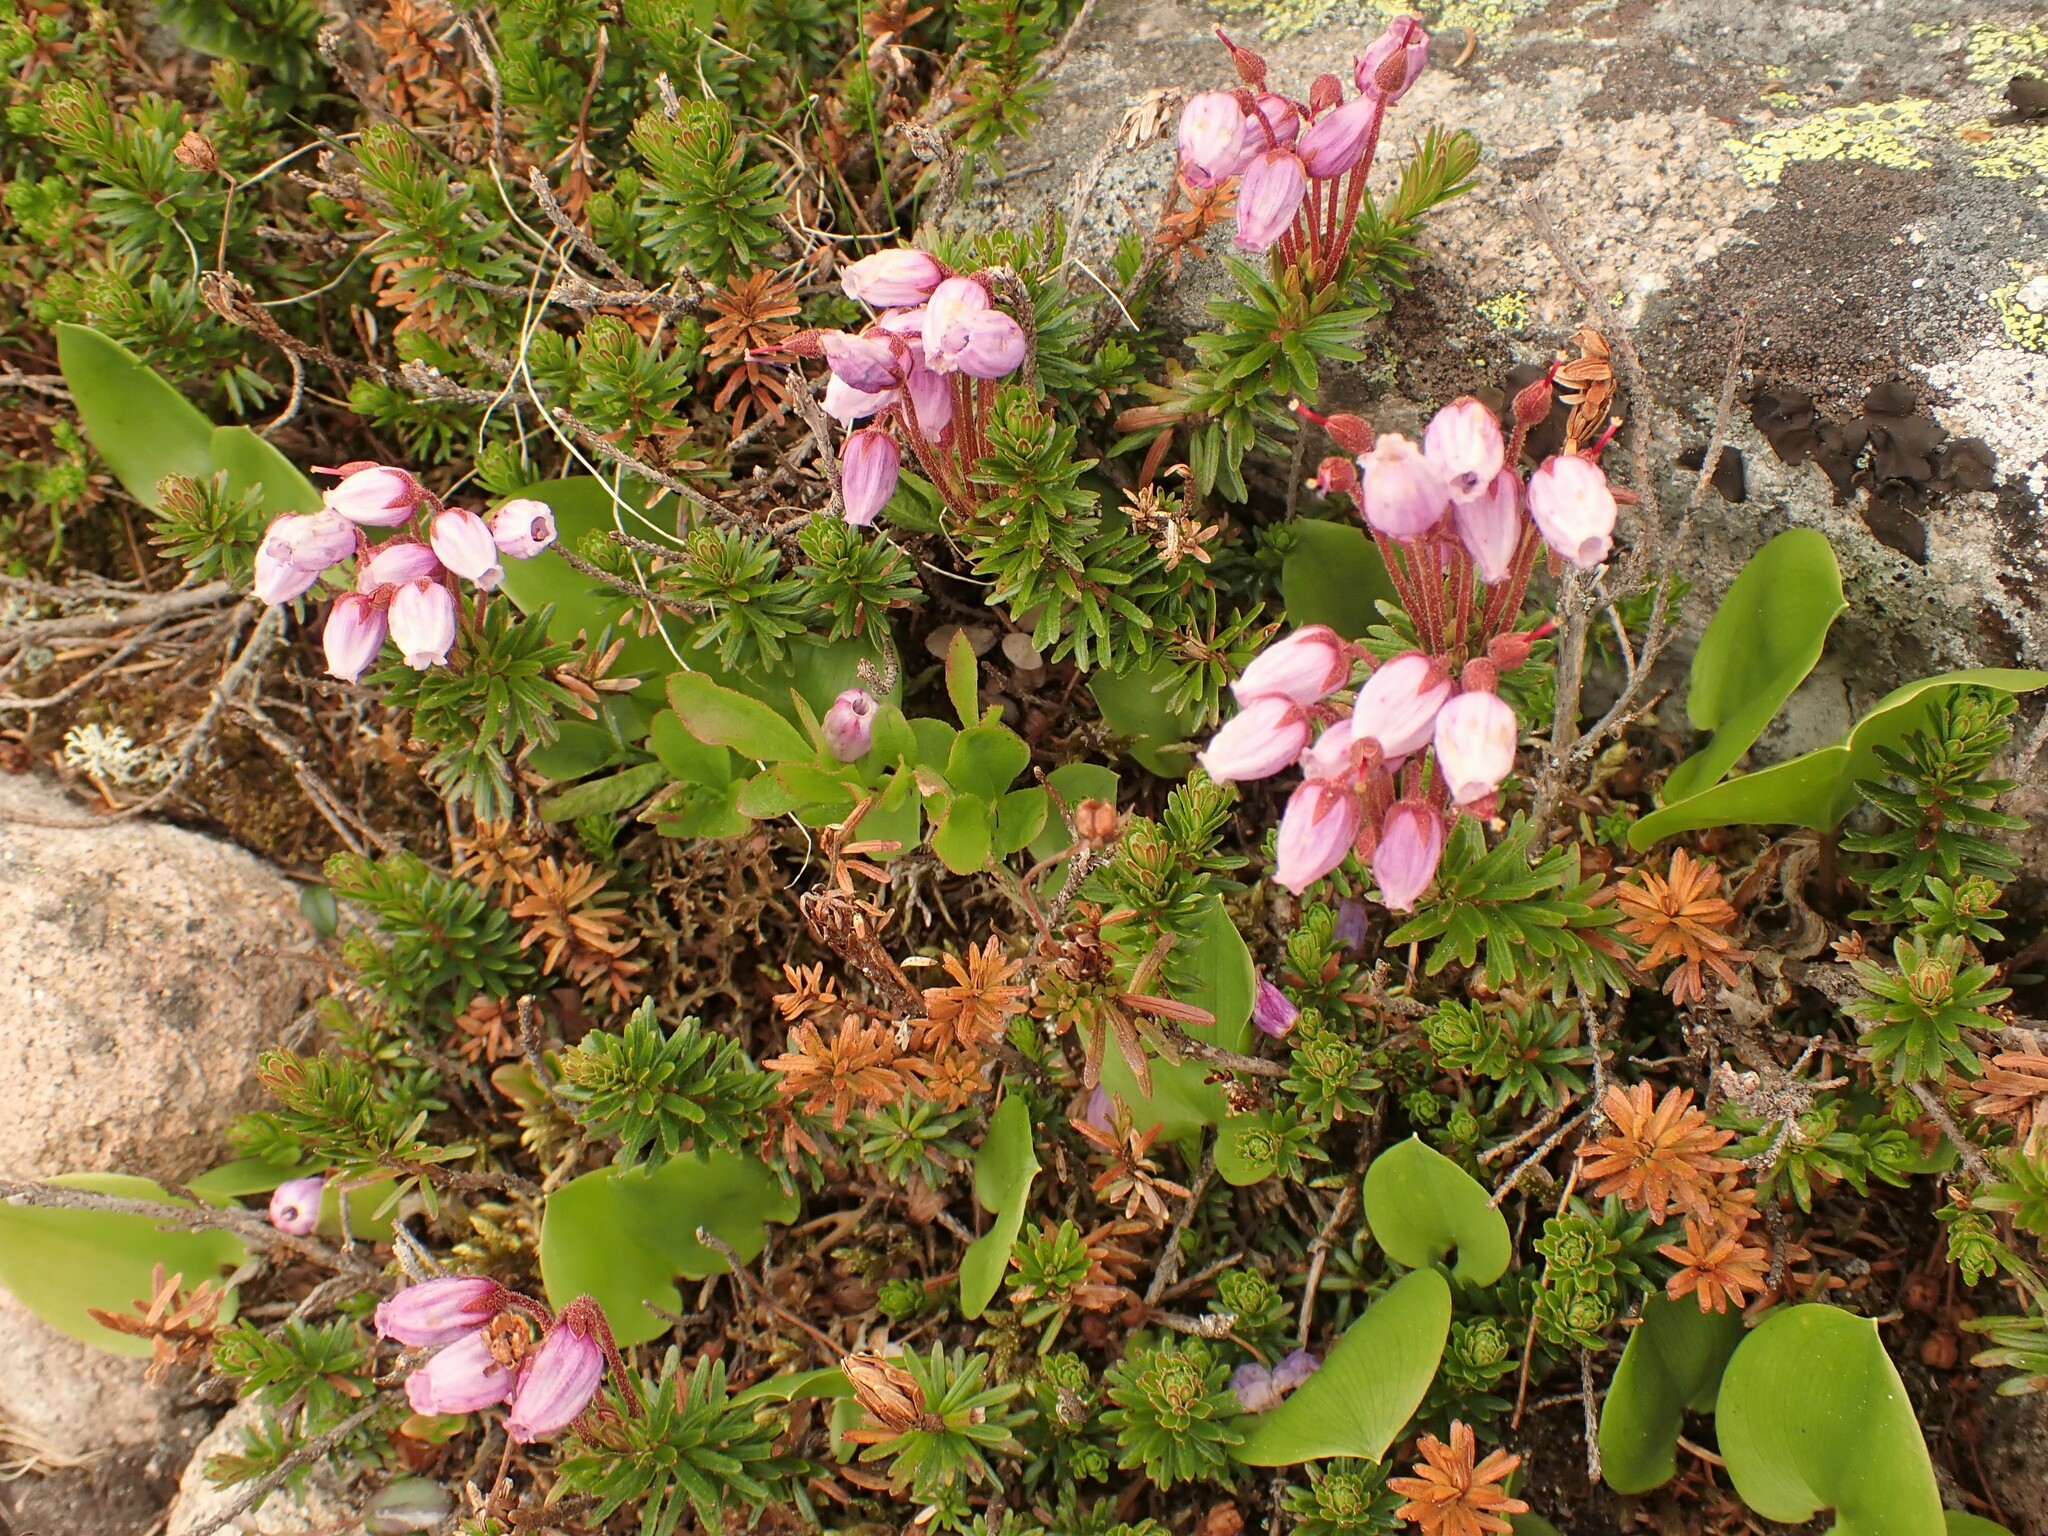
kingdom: Plantae
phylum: Tracheophyta
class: Magnoliopsida
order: Ericales
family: Ericaceae
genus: Phyllodoce
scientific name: Phyllodoce caerulea
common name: Blue heath
